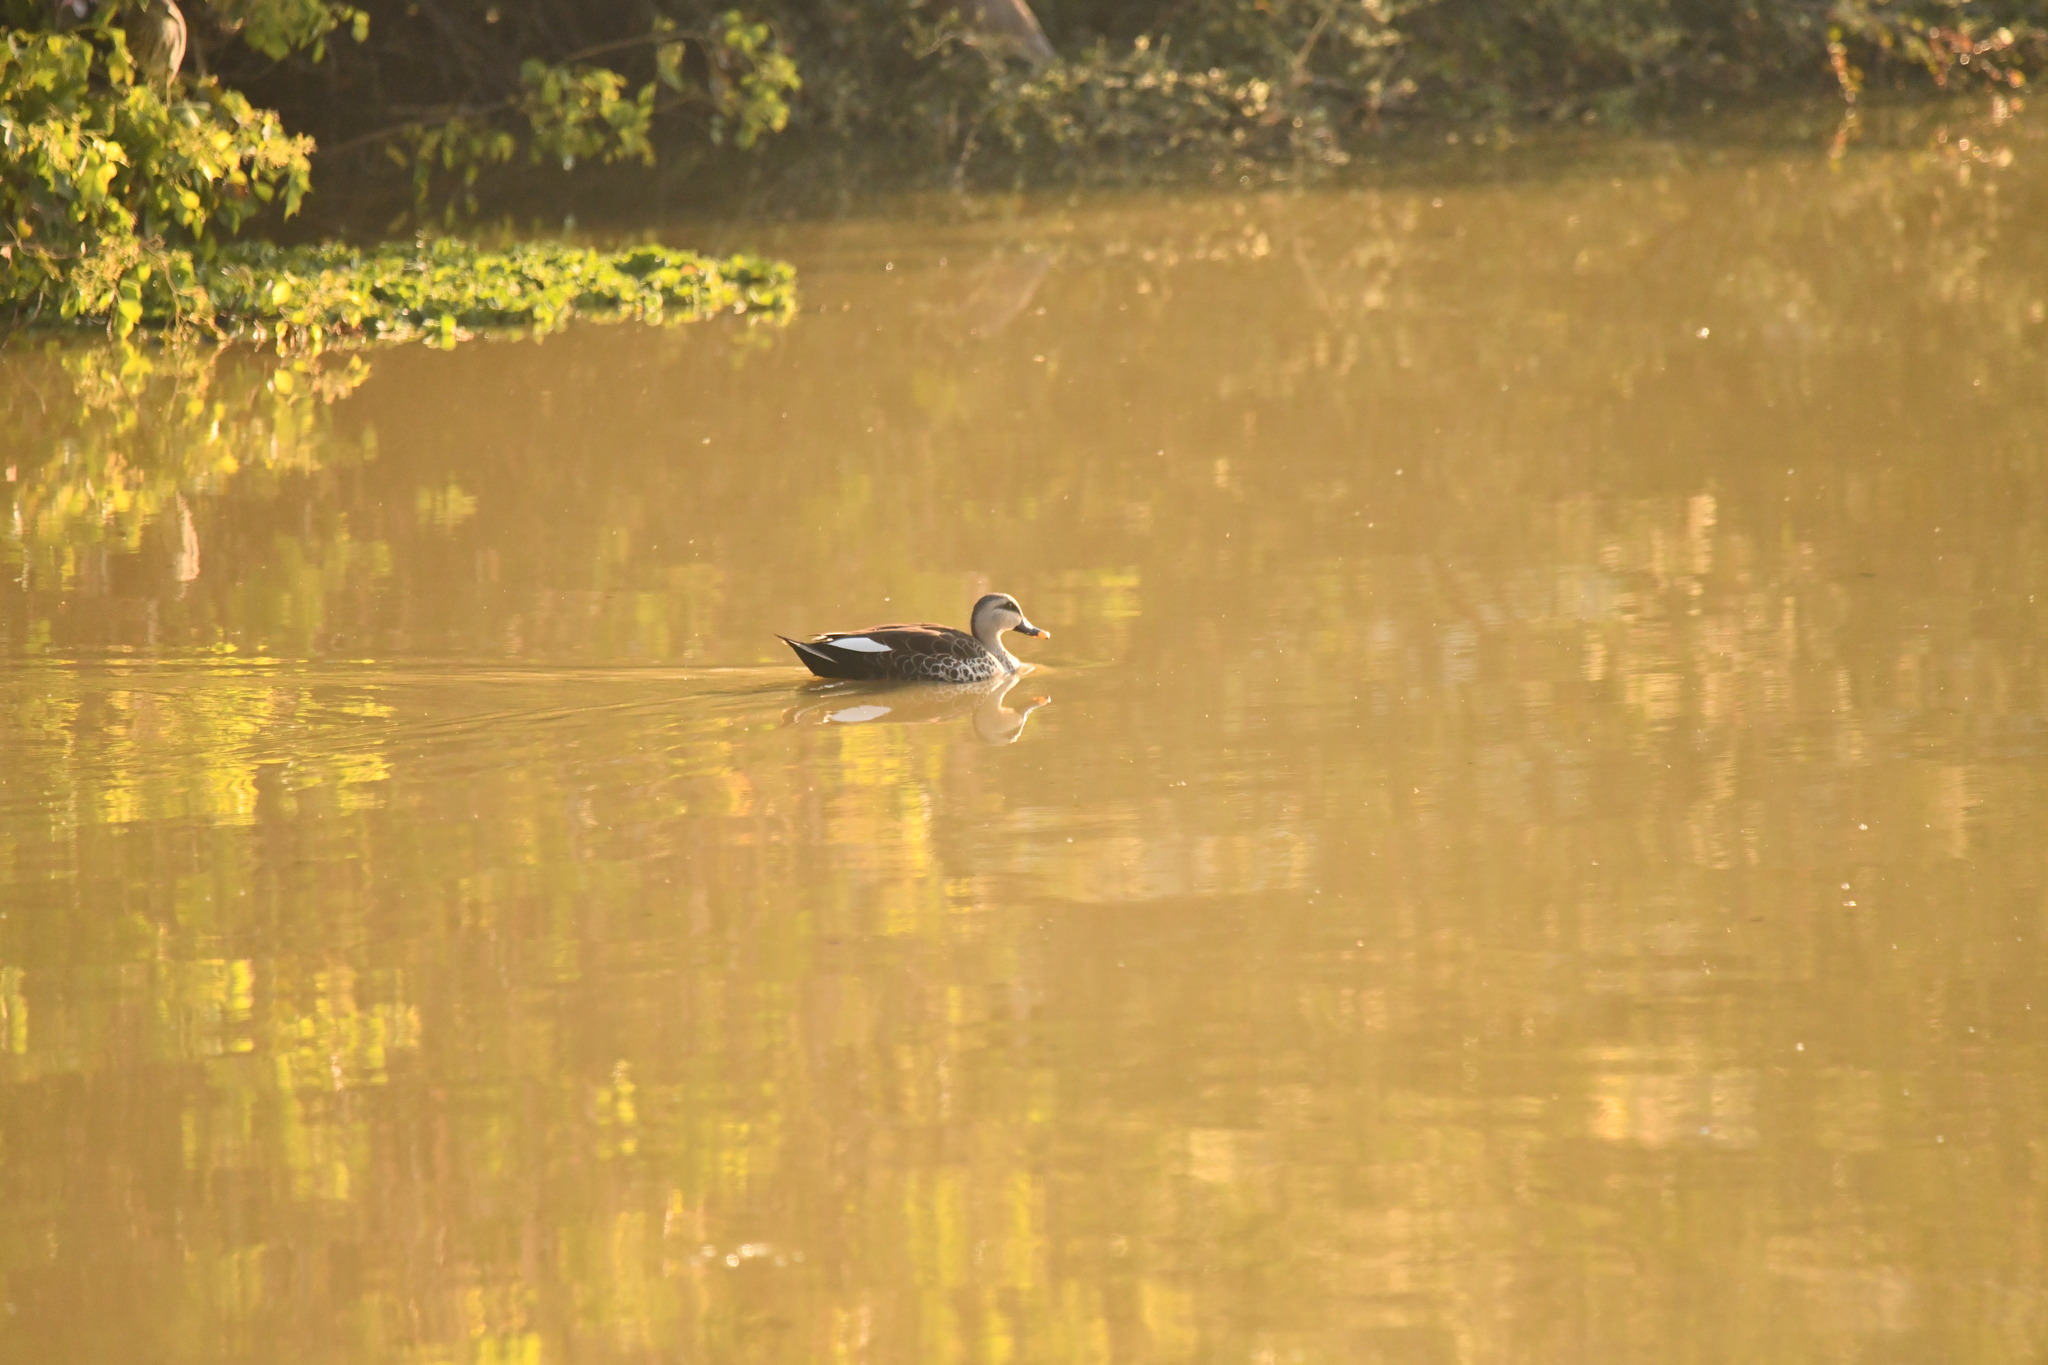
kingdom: Animalia
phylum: Chordata
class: Aves
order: Anseriformes
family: Anatidae
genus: Anas
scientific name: Anas poecilorhyncha
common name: Indian spot-billed duck
